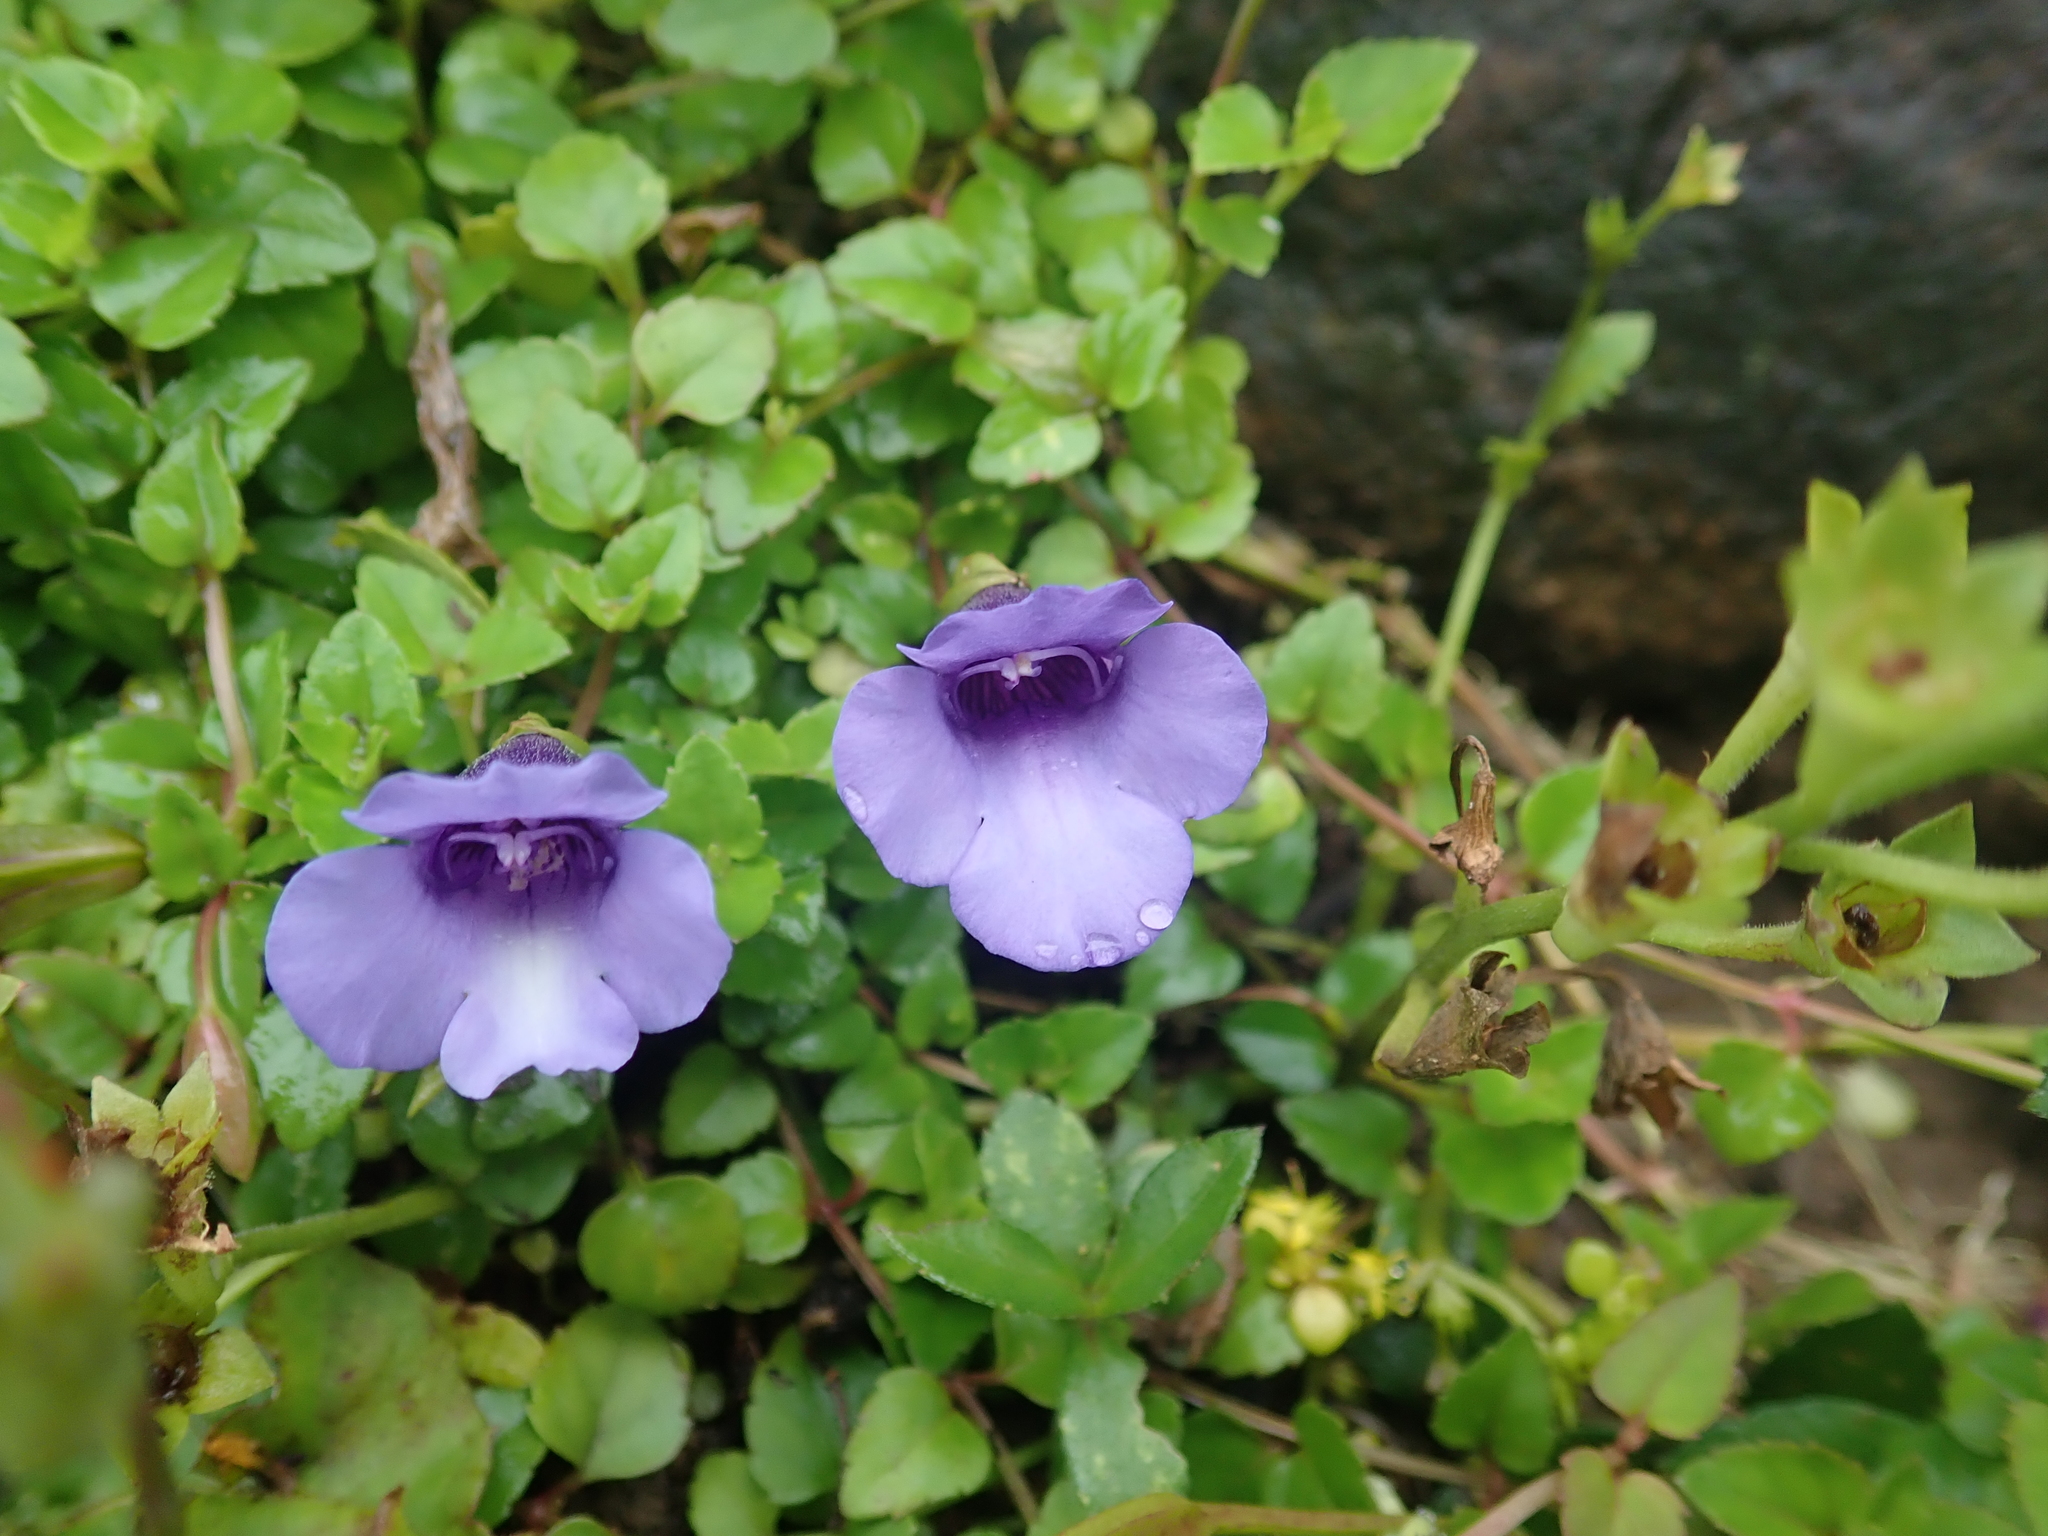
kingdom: Plantae
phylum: Tracheophyta
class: Magnoliopsida
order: Lamiales
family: Linderniaceae
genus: Torenia
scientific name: Torenia concolor
